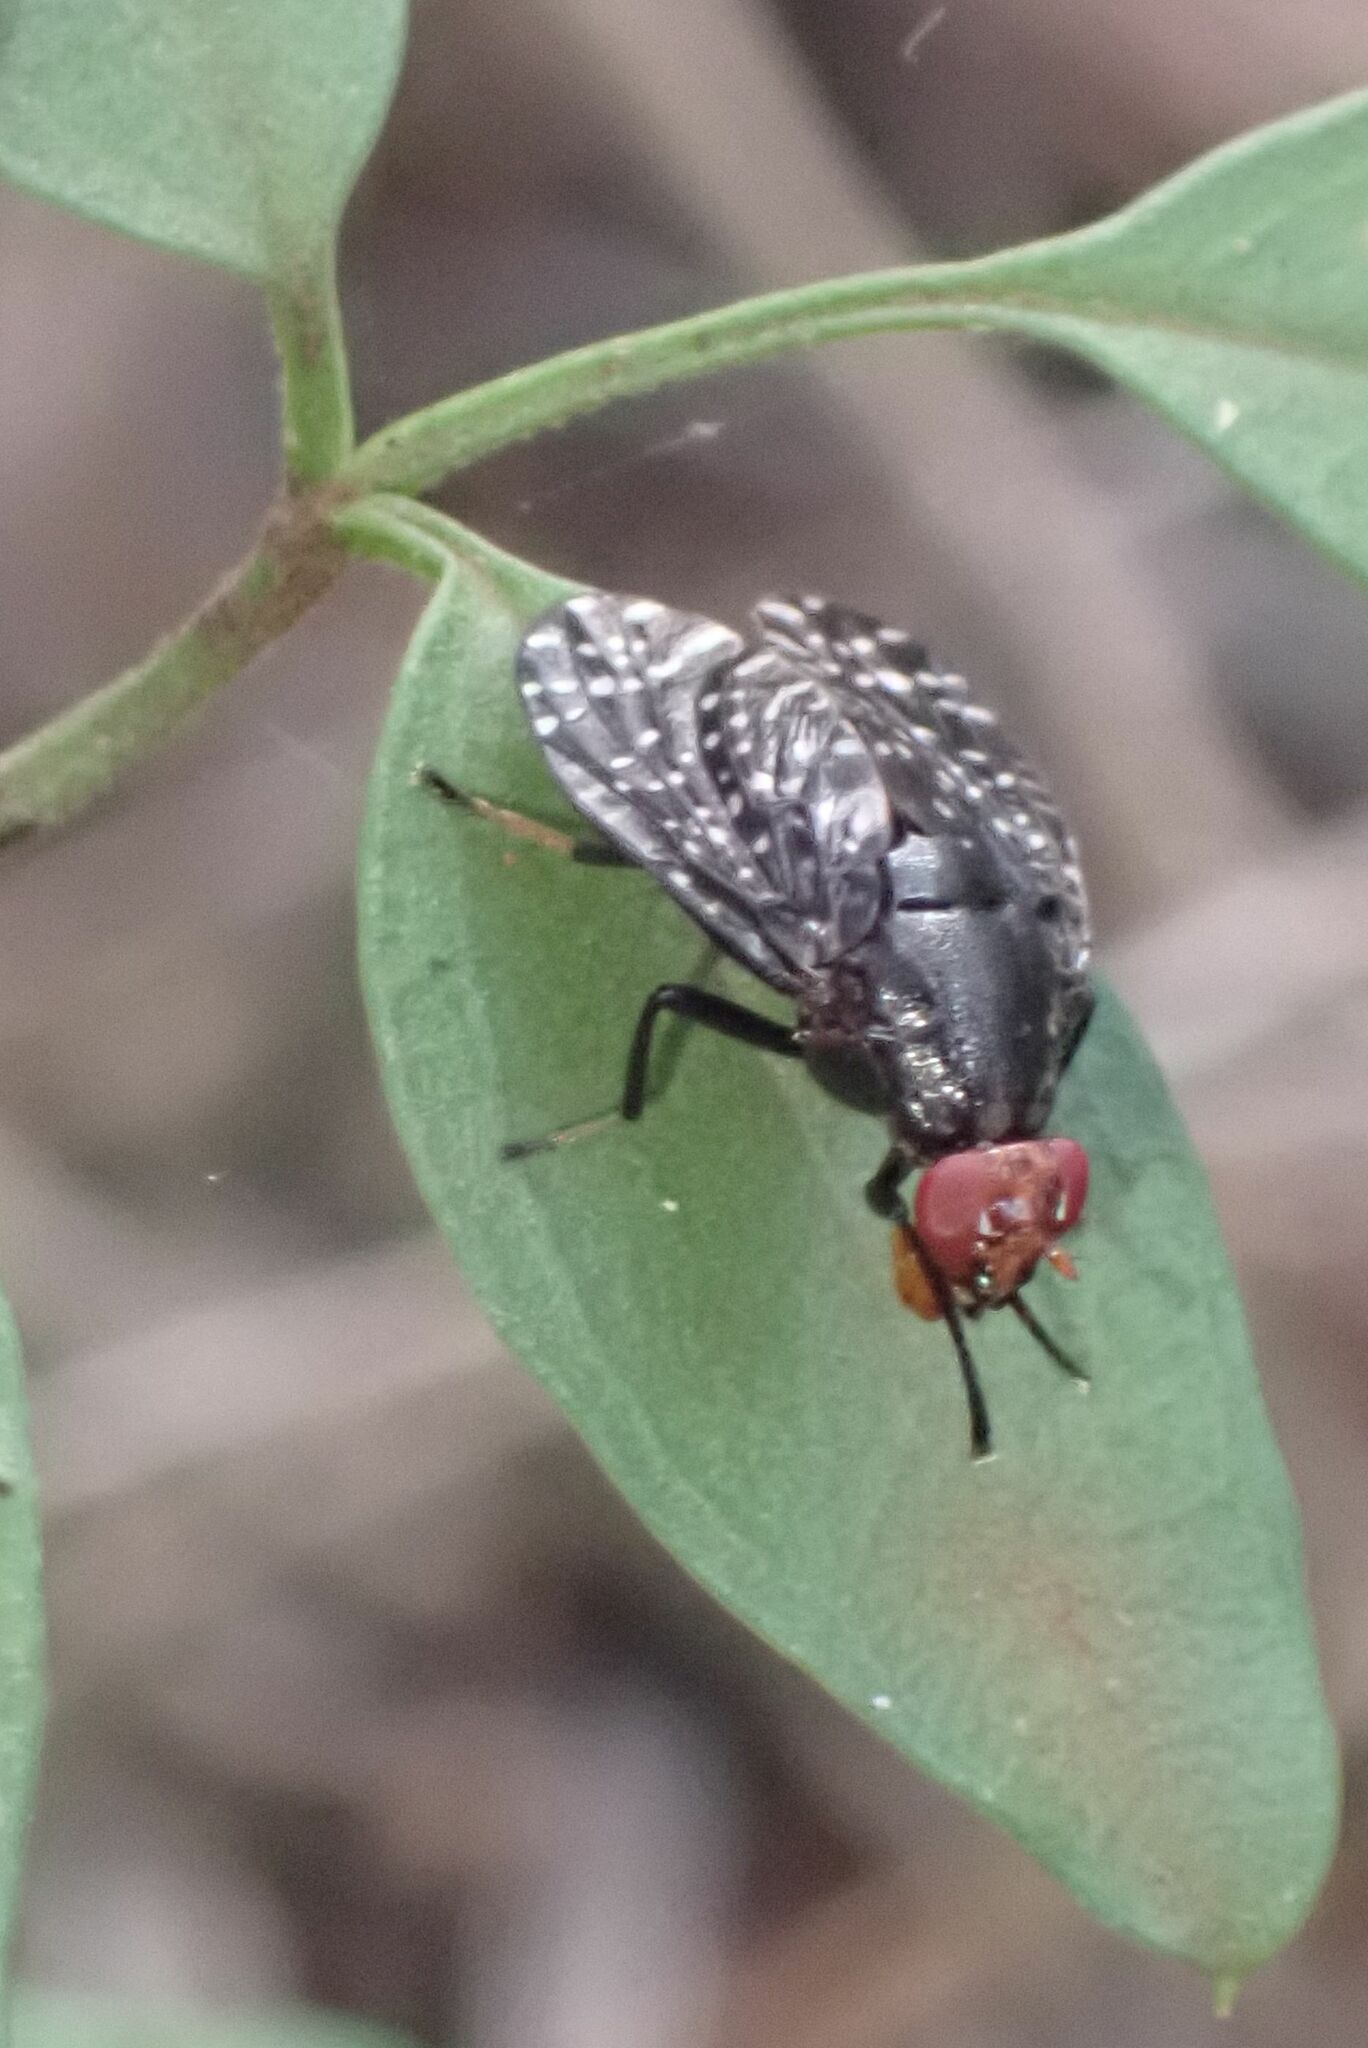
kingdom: Animalia
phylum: Arthropoda
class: Insecta
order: Diptera
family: Platystomatidae
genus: Peltacanthina
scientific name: Peltacanthina mythodes
